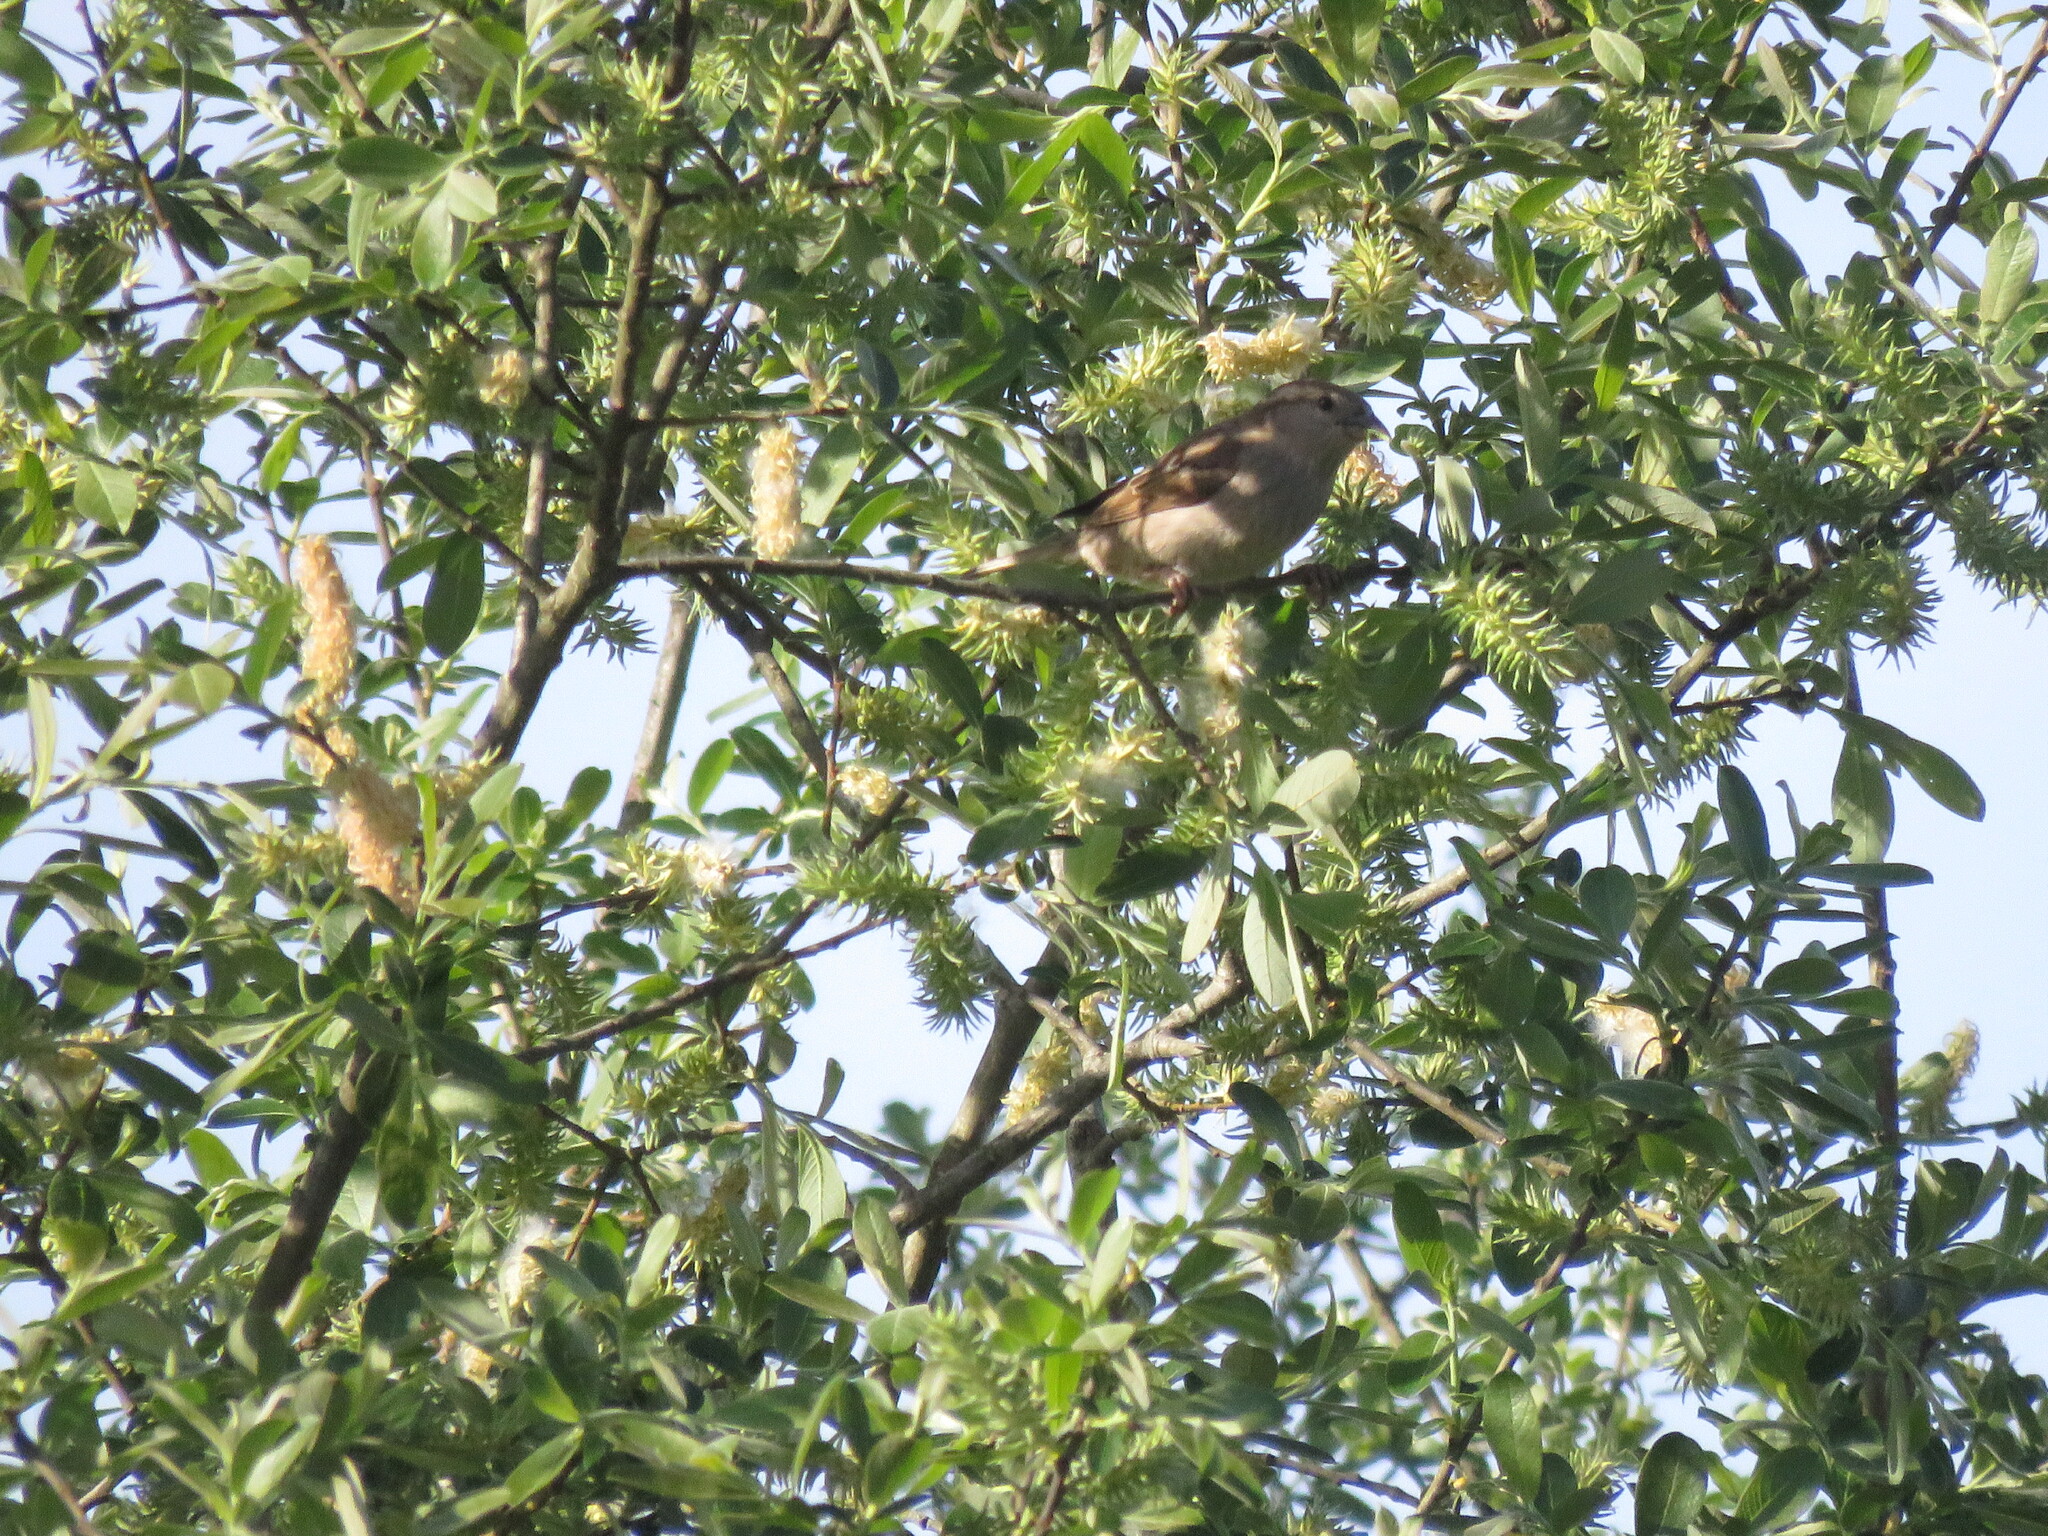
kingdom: Animalia
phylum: Chordata
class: Aves
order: Passeriformes
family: Passeridae
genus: Passer
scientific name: Passer domesticus
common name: House sparrow
